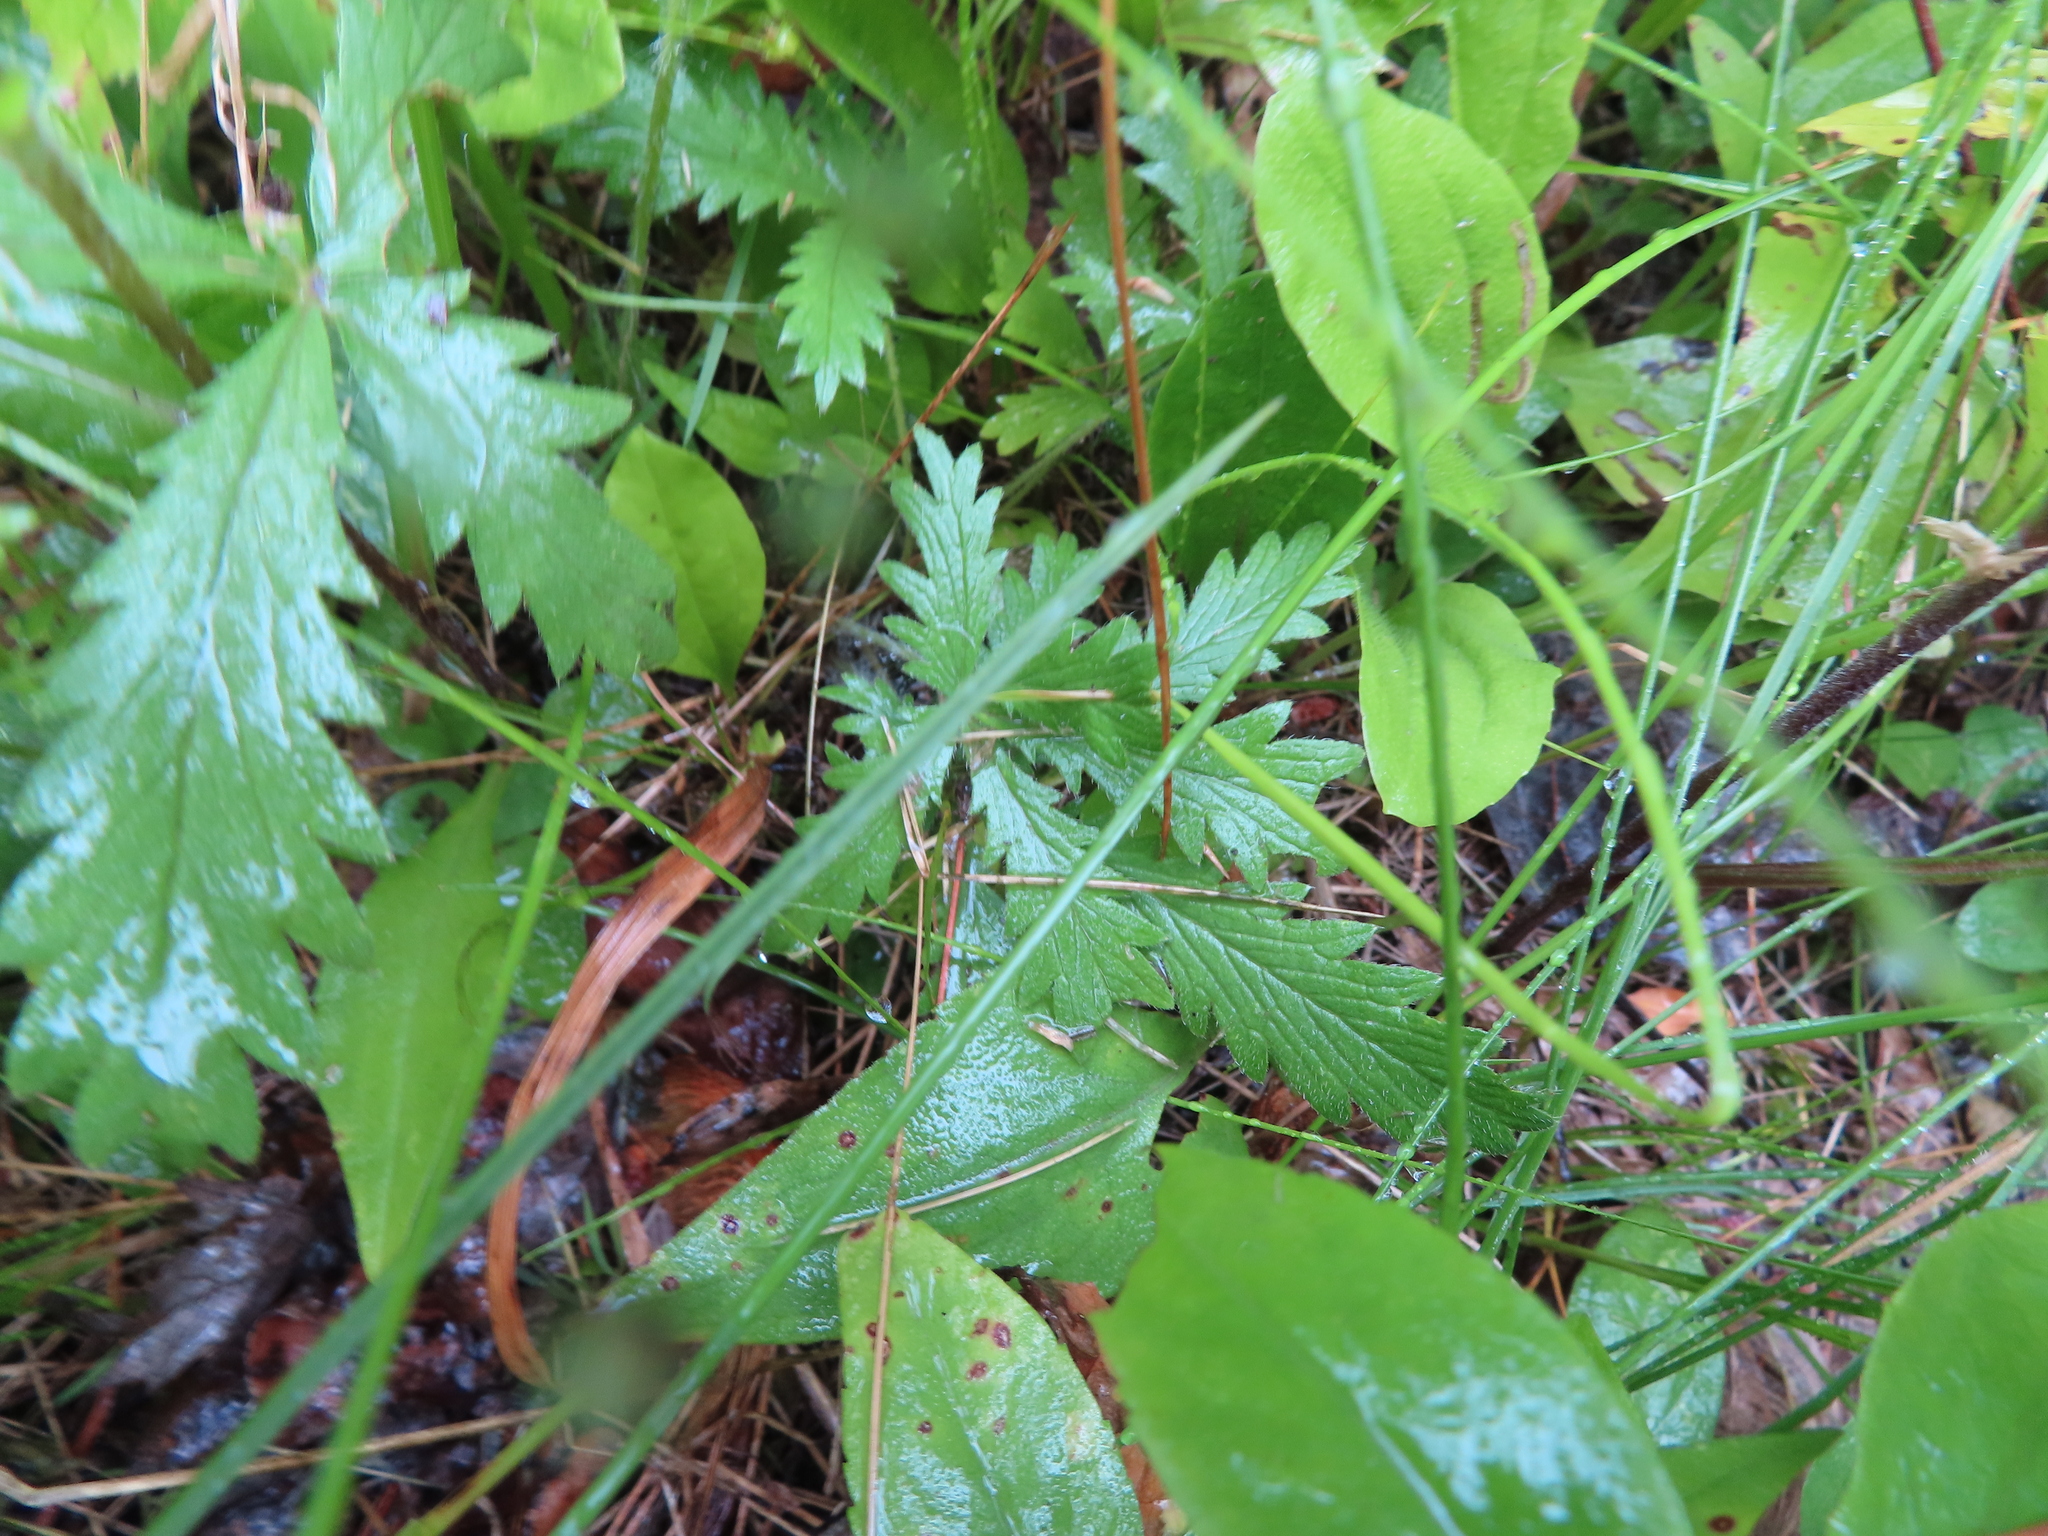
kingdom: Plantae
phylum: Tracheophyta
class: Magnoliopsida
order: Rosales
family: Rosaceae
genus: Potentilla
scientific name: Potentilla recta
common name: Sulphur cinquefoil
